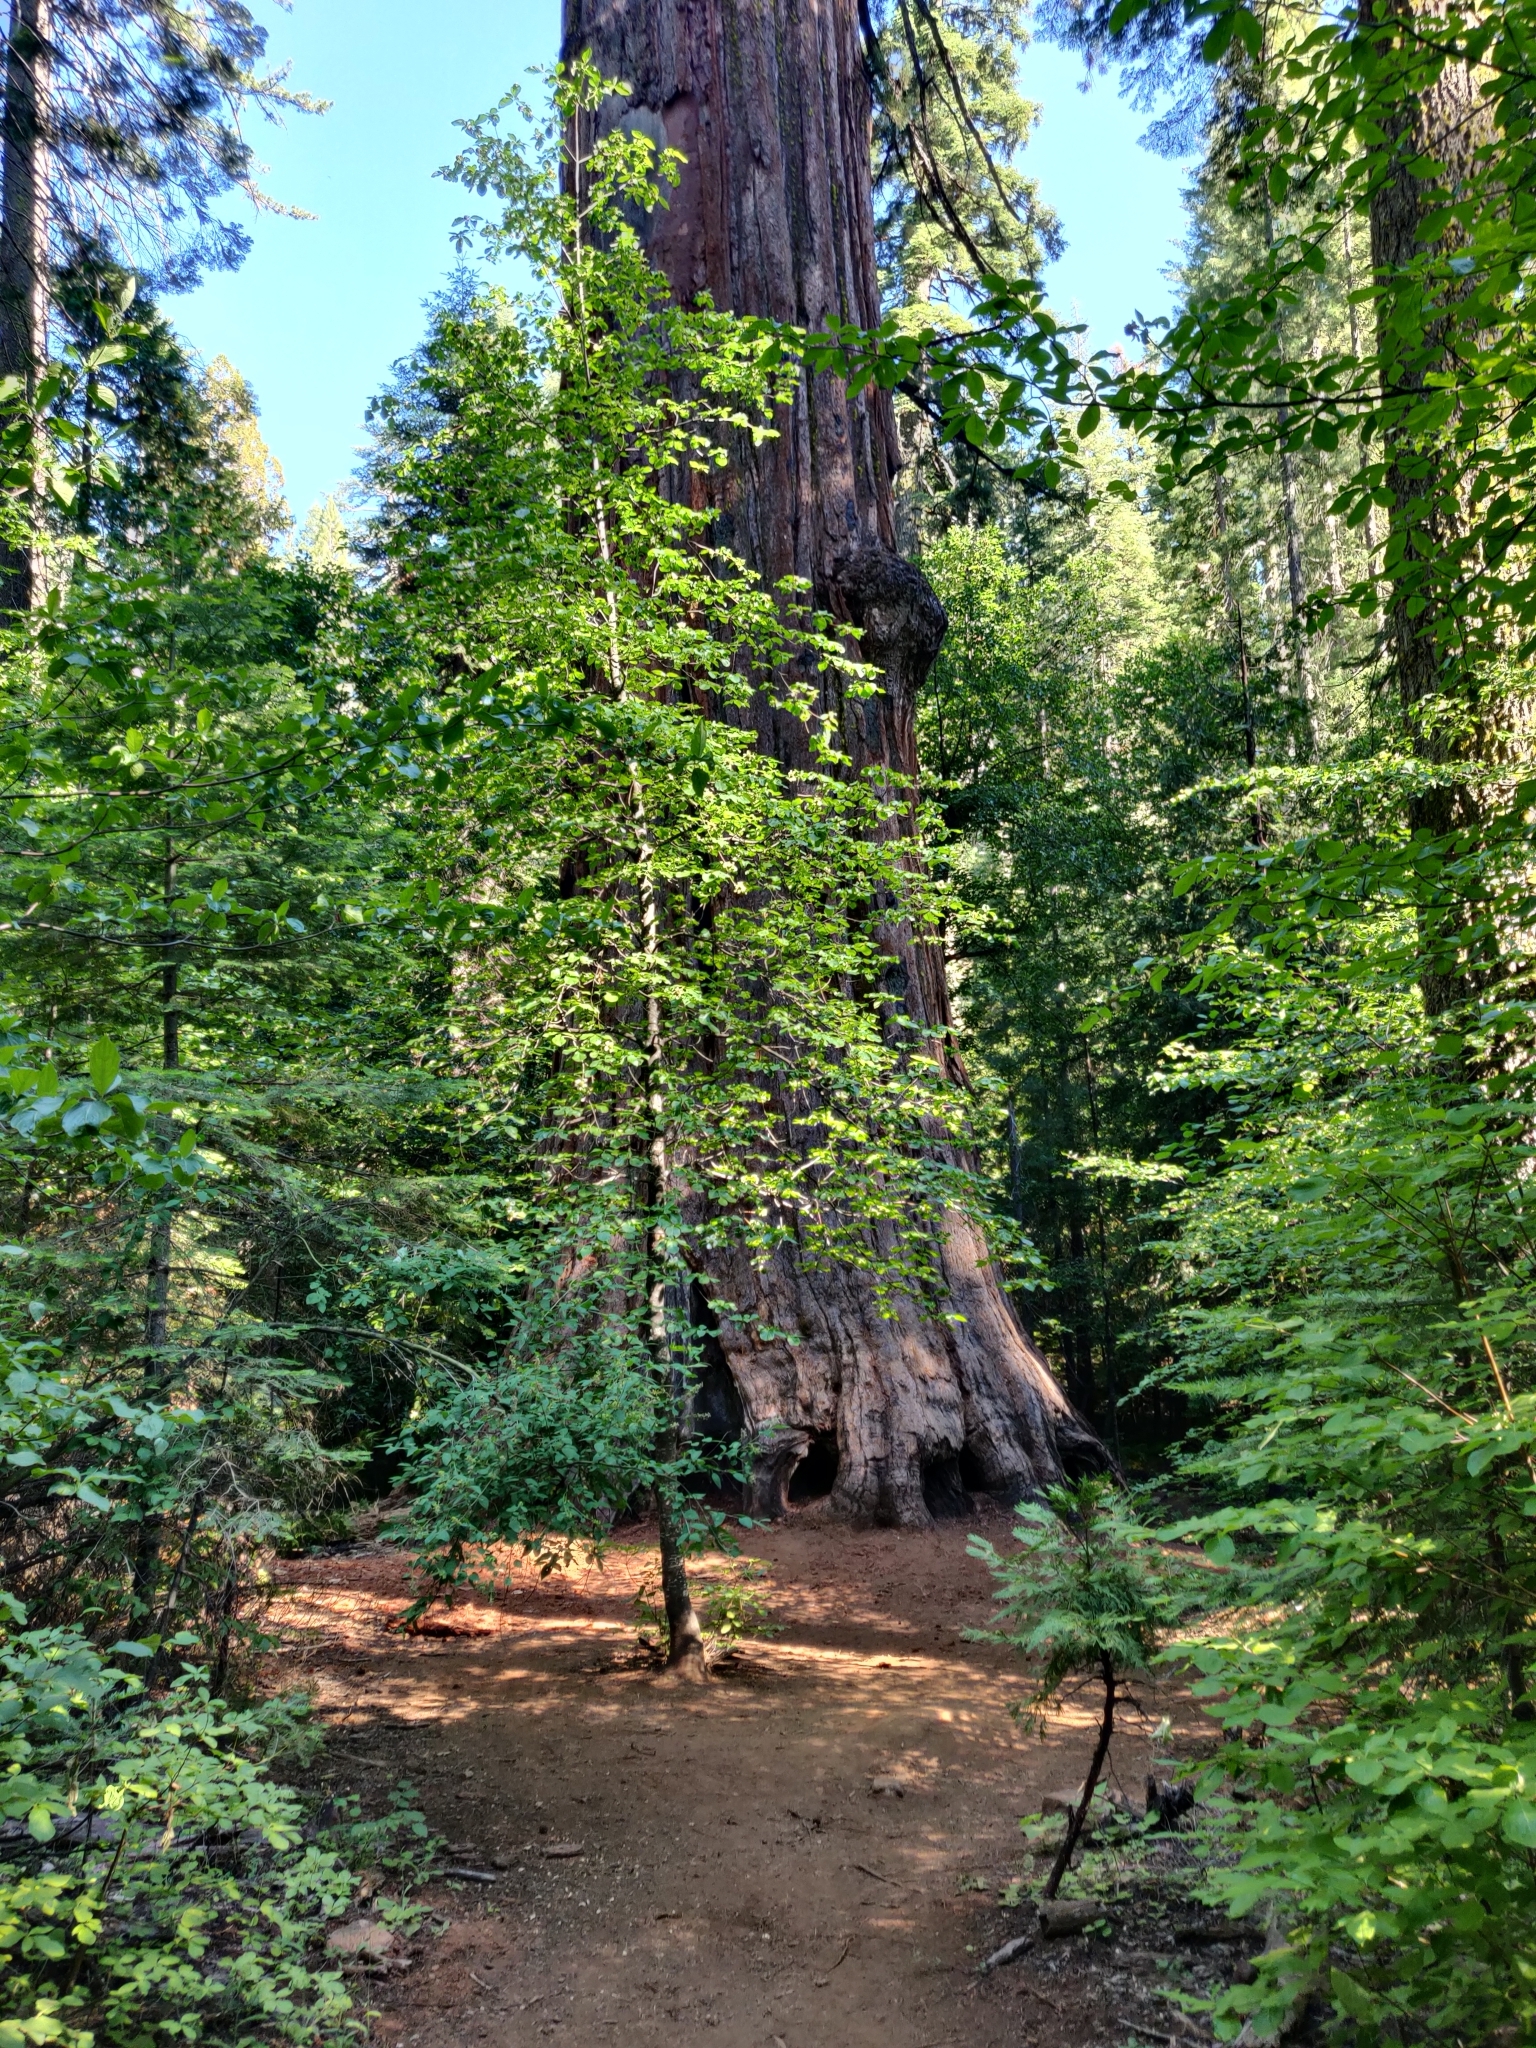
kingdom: Plantae
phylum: Tracheophyta
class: Pinopsida
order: Pinales
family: Cupressaceae
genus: Sequoiadendron
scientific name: Sequoiadendron giganteum
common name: Wellingtonia
